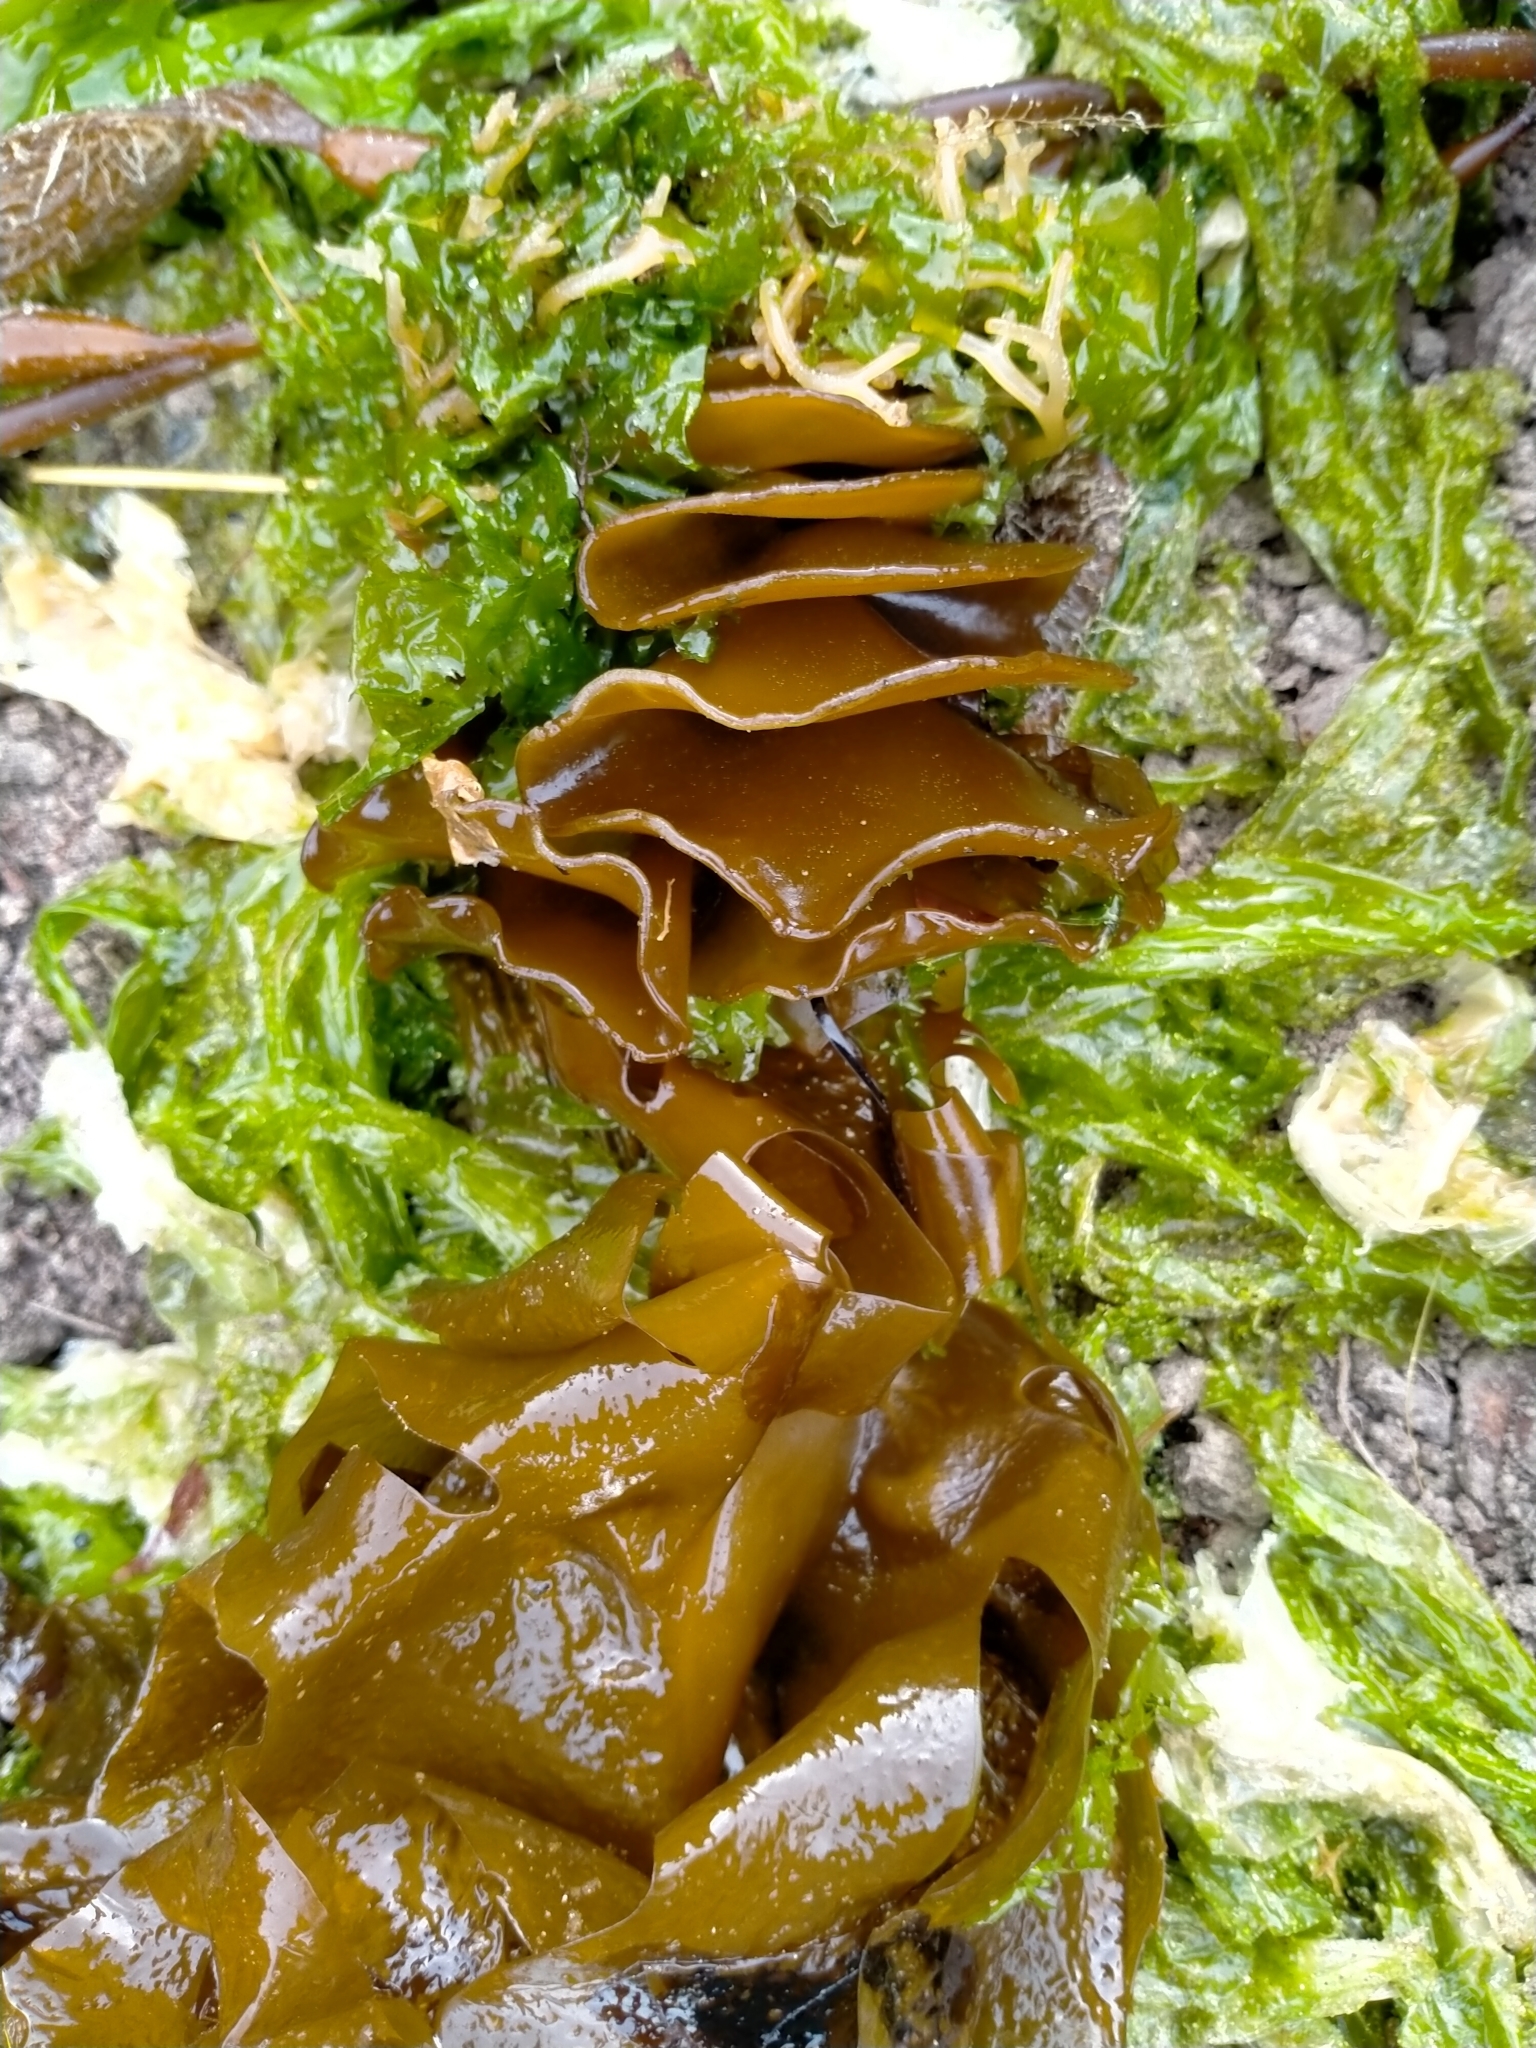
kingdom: Chromista
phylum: Ochrophyta
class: Phaeophyceae
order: Laminariales
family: Alariaceae
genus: Undaria
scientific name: Undaria pinnatifida
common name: Asian kelp
